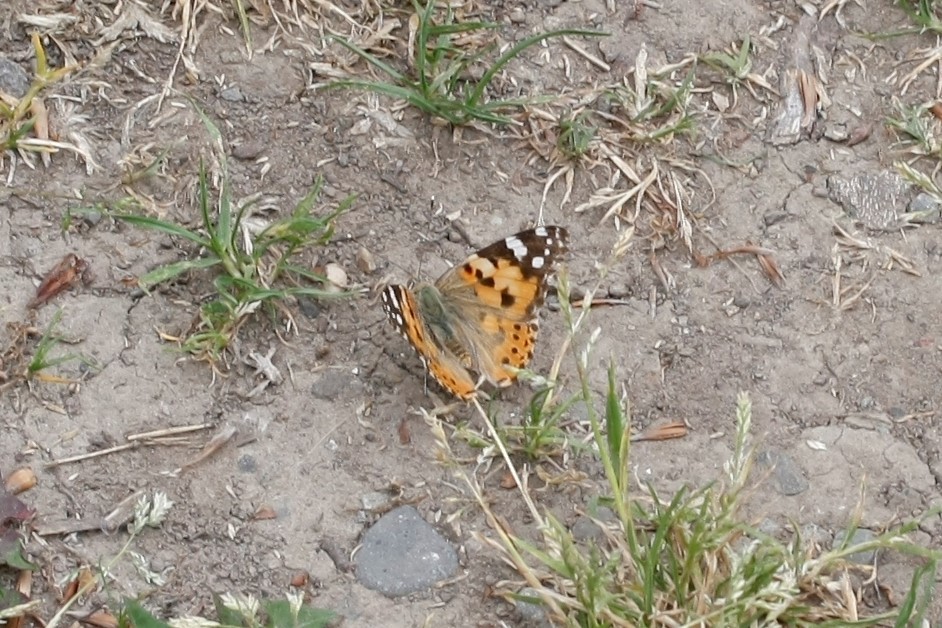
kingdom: Animalia
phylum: Arthropoda
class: Insecta
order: Lepidoptera
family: Nymphalidae
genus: Vanessa
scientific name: Vanessa cardui
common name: Painted lady
